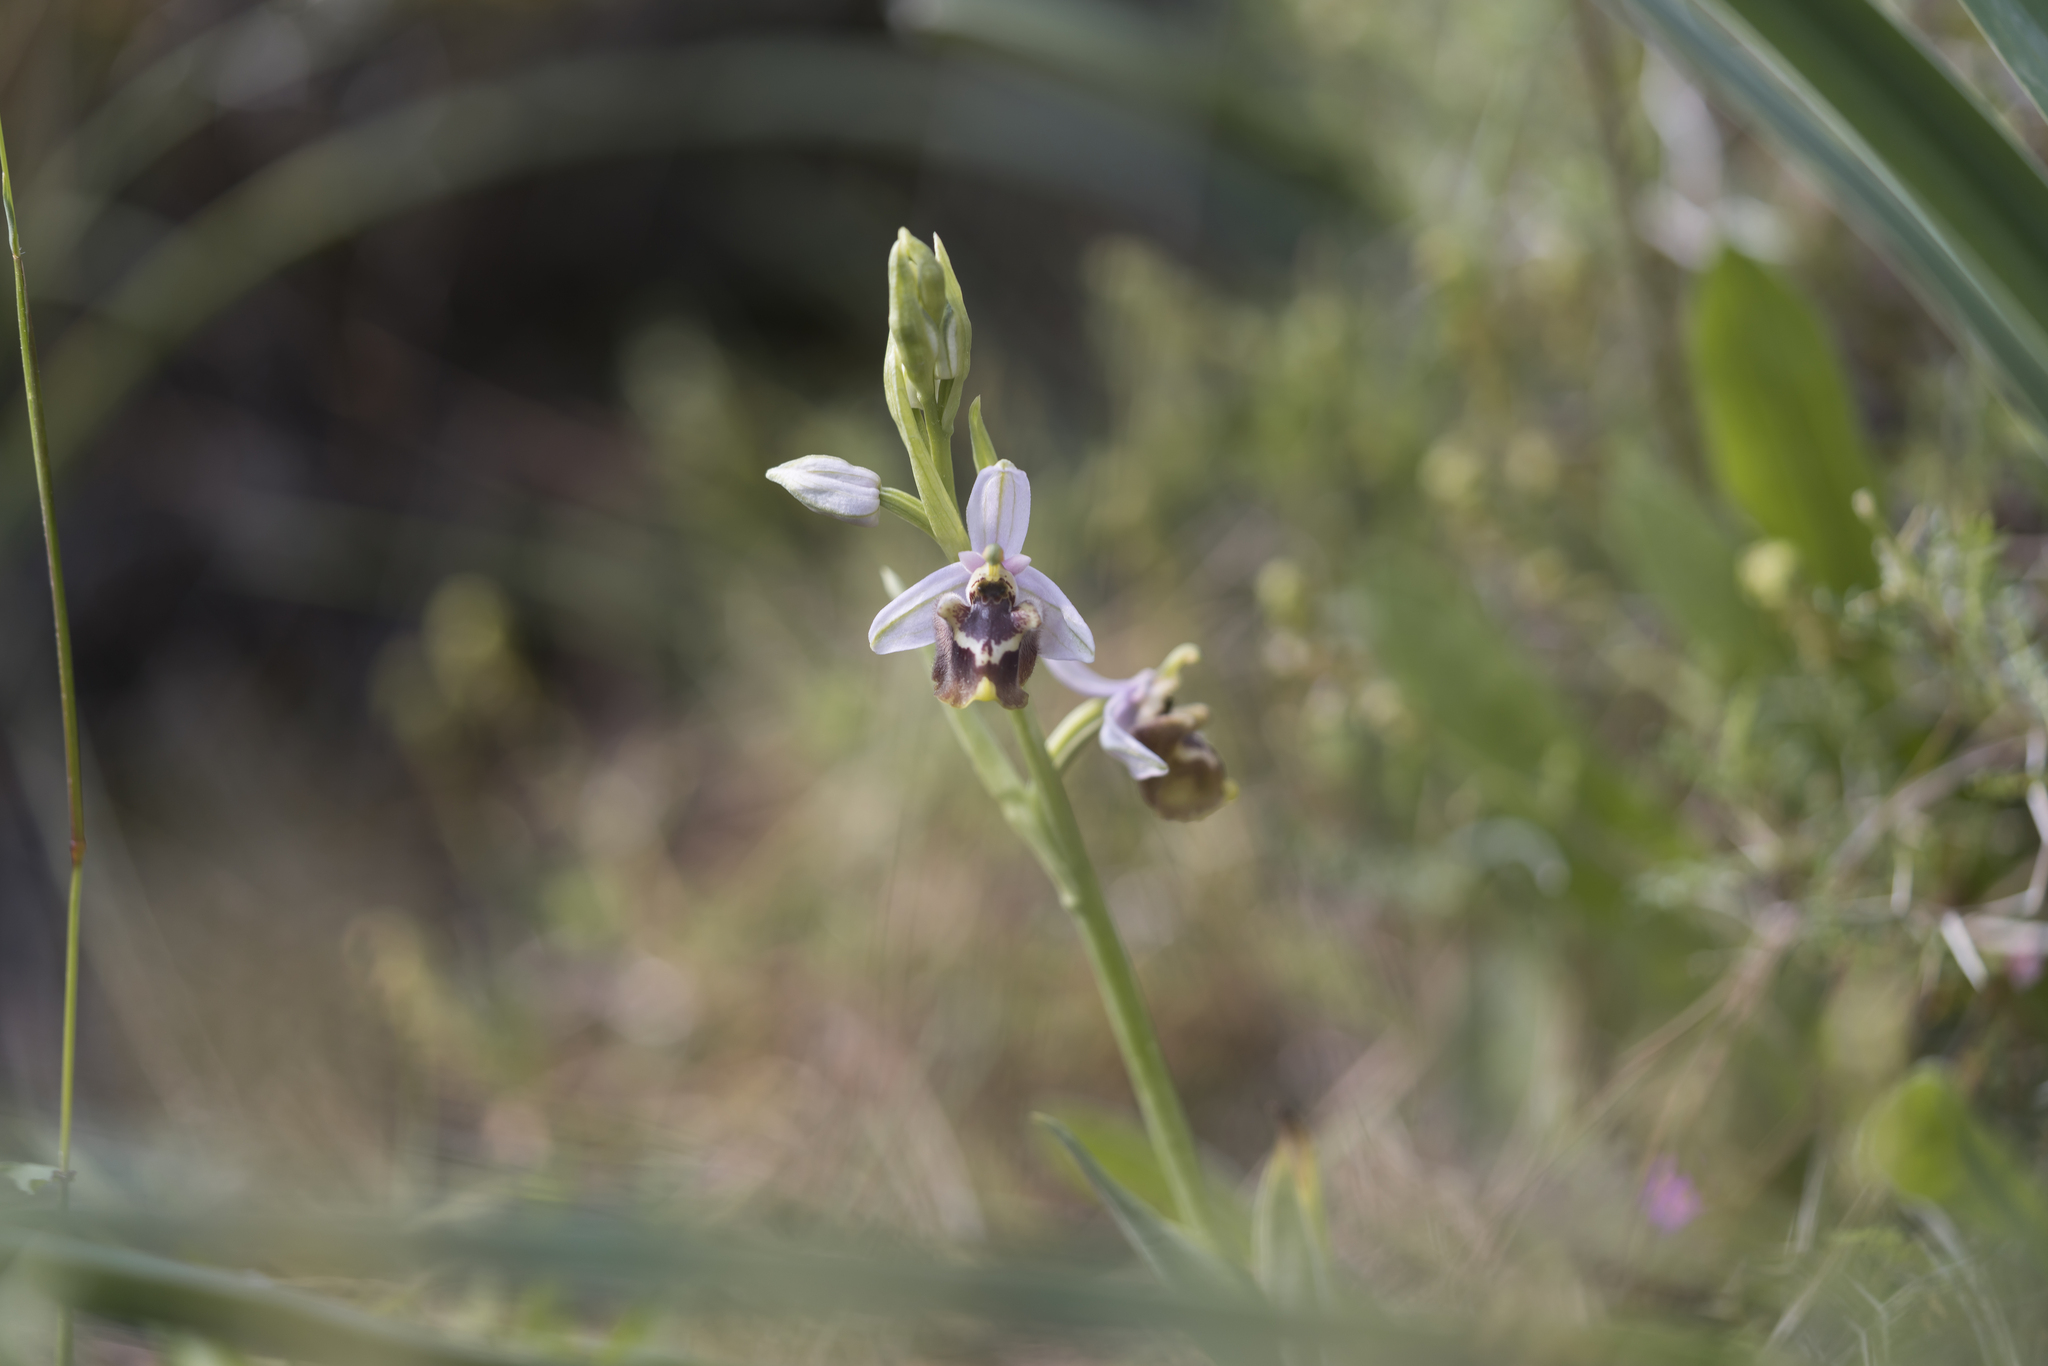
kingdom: Plantae
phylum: Tracheophyta
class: Liliopsida
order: Asparagales
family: Orchidaceae
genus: Ophrys
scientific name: Ophrys holosericea
